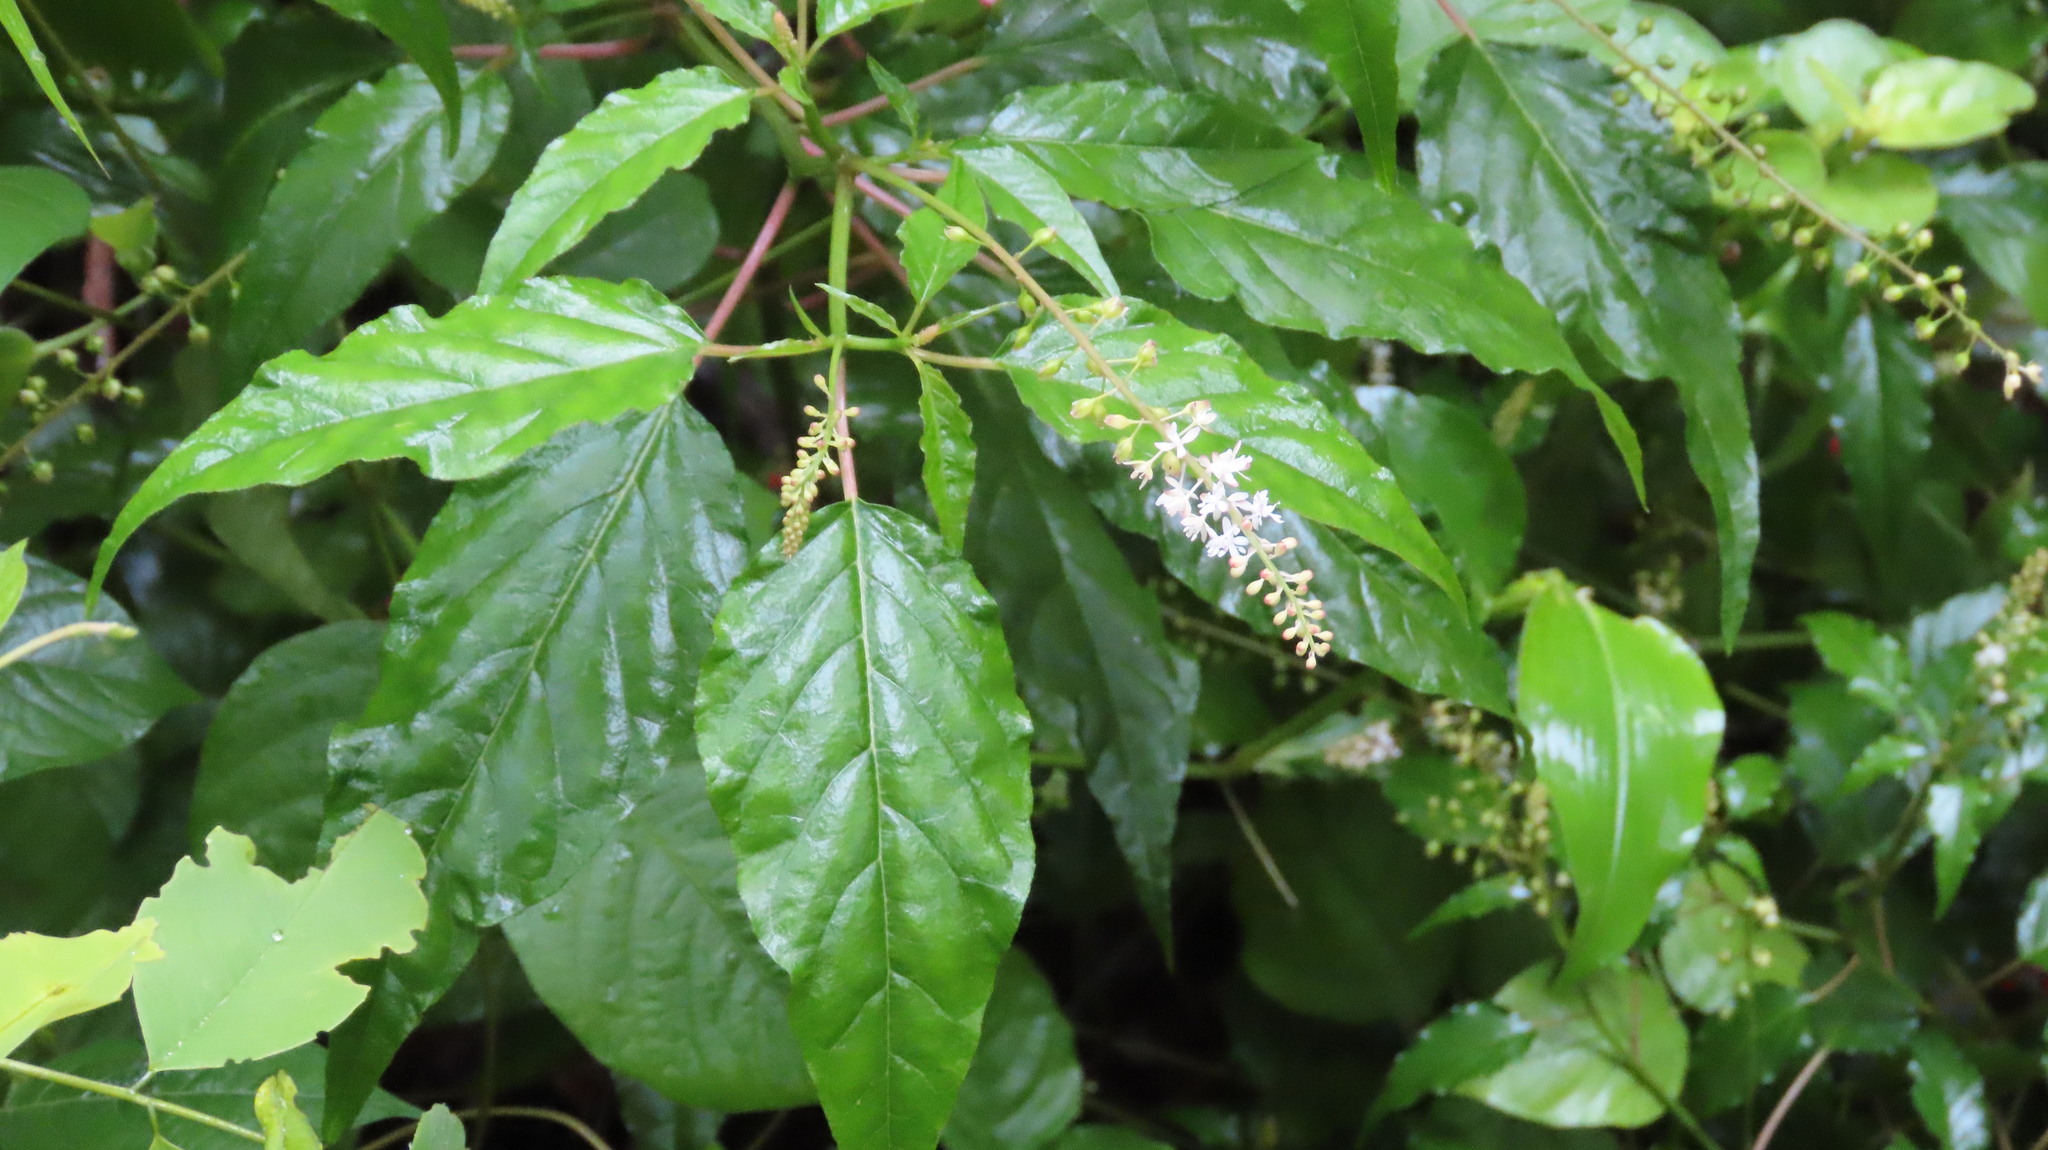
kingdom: Plantae
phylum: Tracheophyta
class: Magnoliopsida
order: Caryophyllales
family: Phytolaccaceae
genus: Rivina
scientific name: Rivina humilis
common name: Rougeplant
